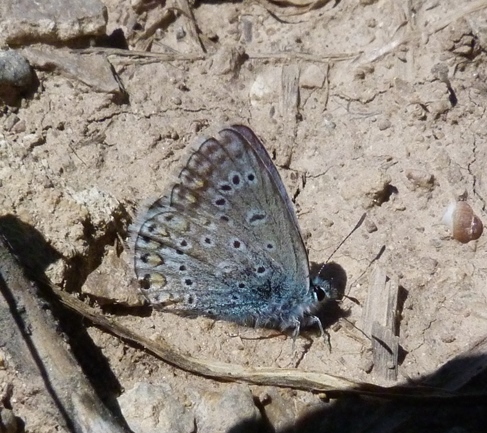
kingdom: Animalia
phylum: Arthropoda
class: Insecta
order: Lepidoptera
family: Lycaenidae
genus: Polyommatus
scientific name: Polyommatus icarus
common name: Common blue
